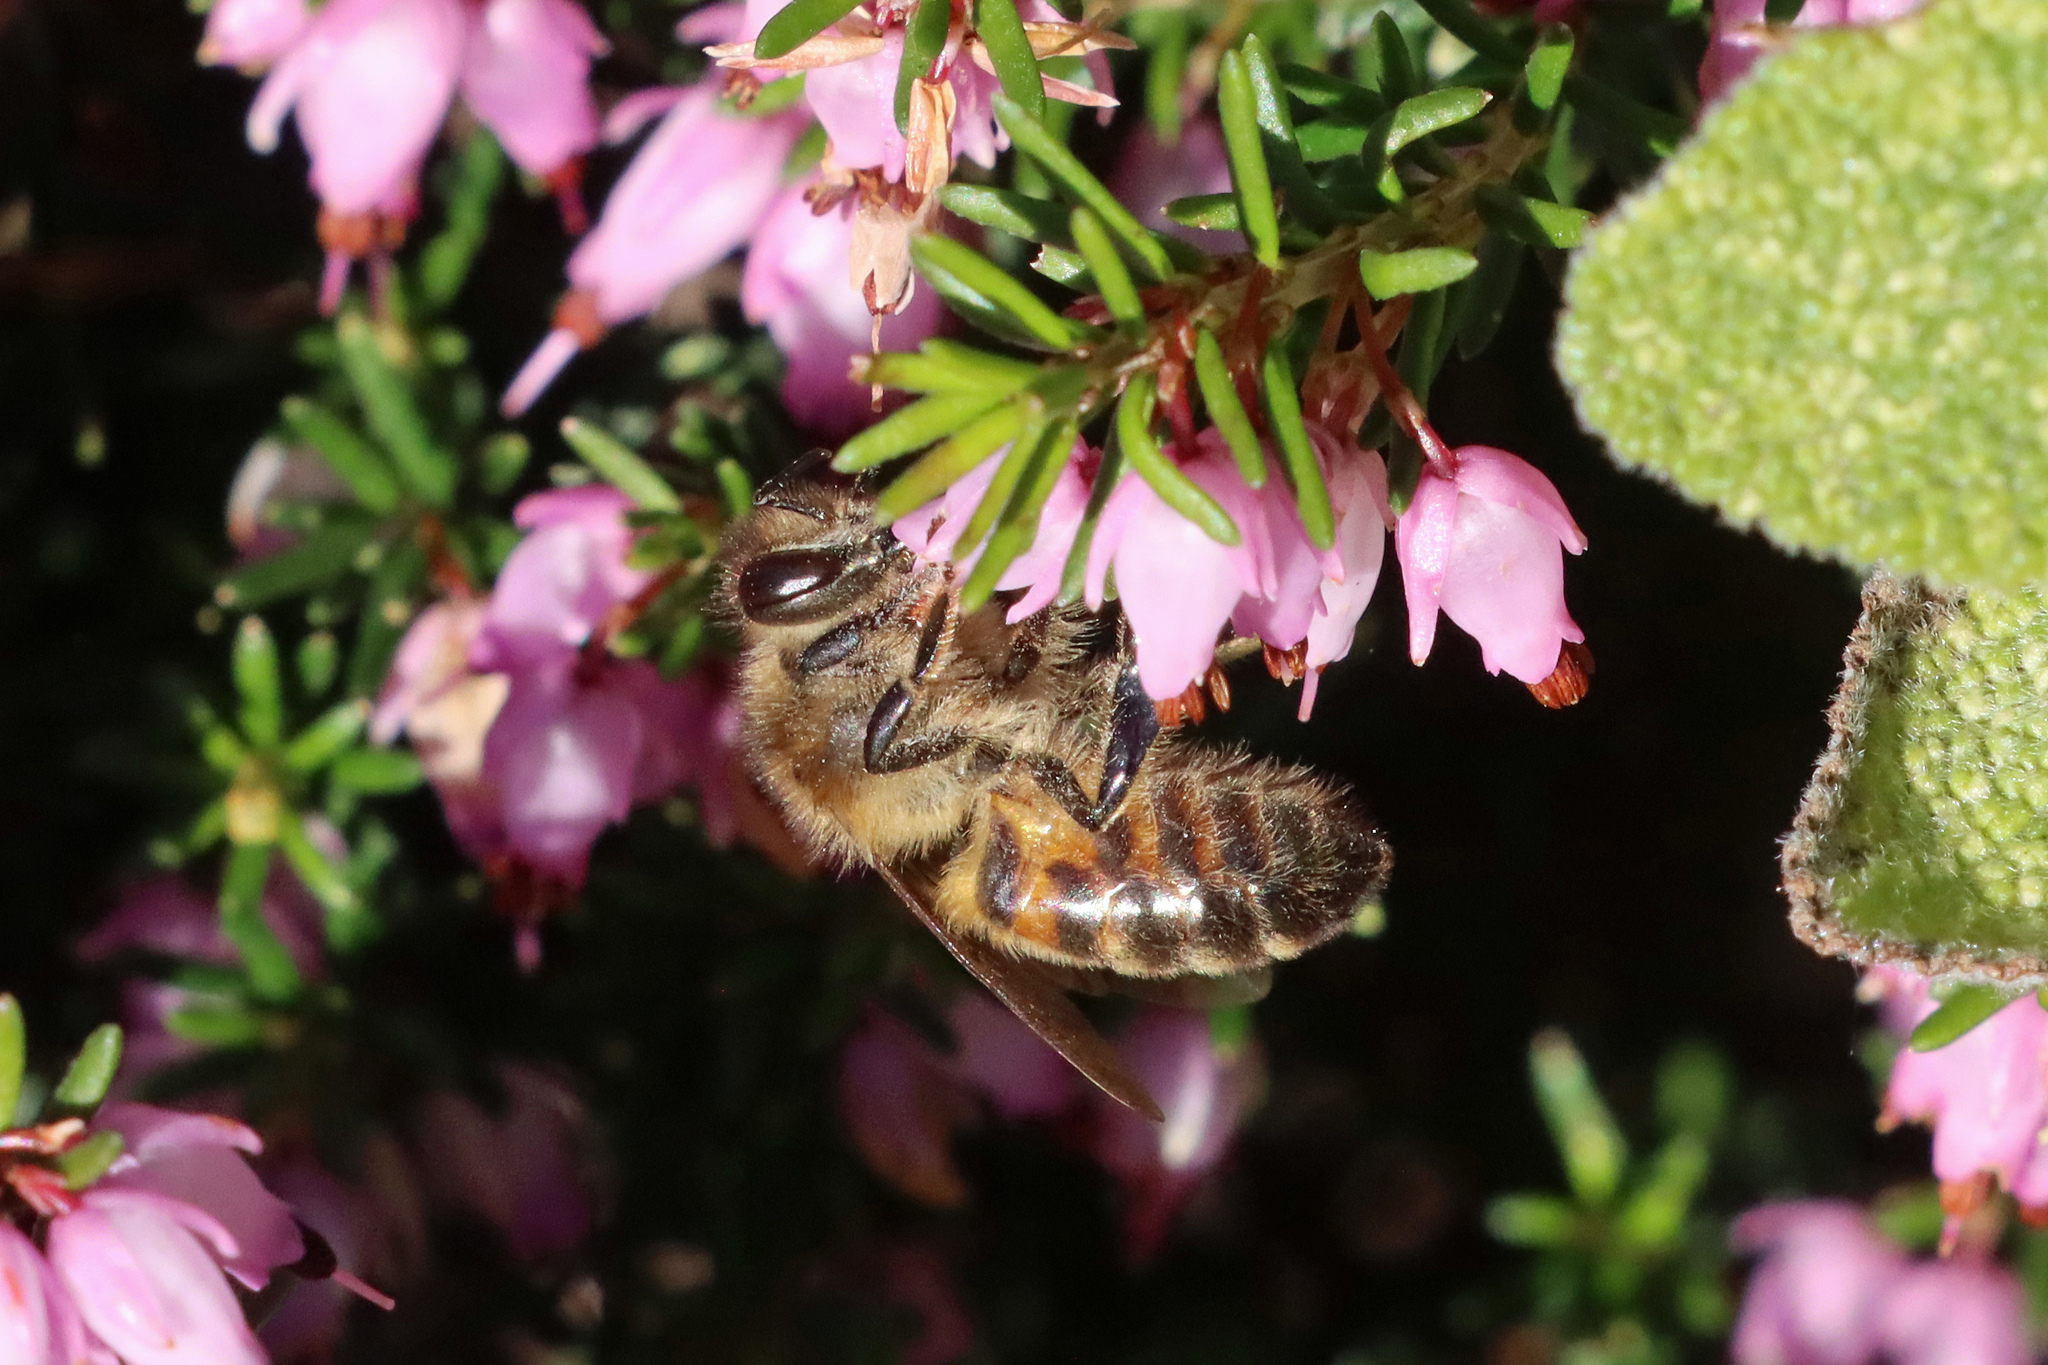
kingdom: Animalia
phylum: Arthropoda
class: Insecta
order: Hymenoptera
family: Apidae
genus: Apis
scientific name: Apis mellifera
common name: Honey bee
